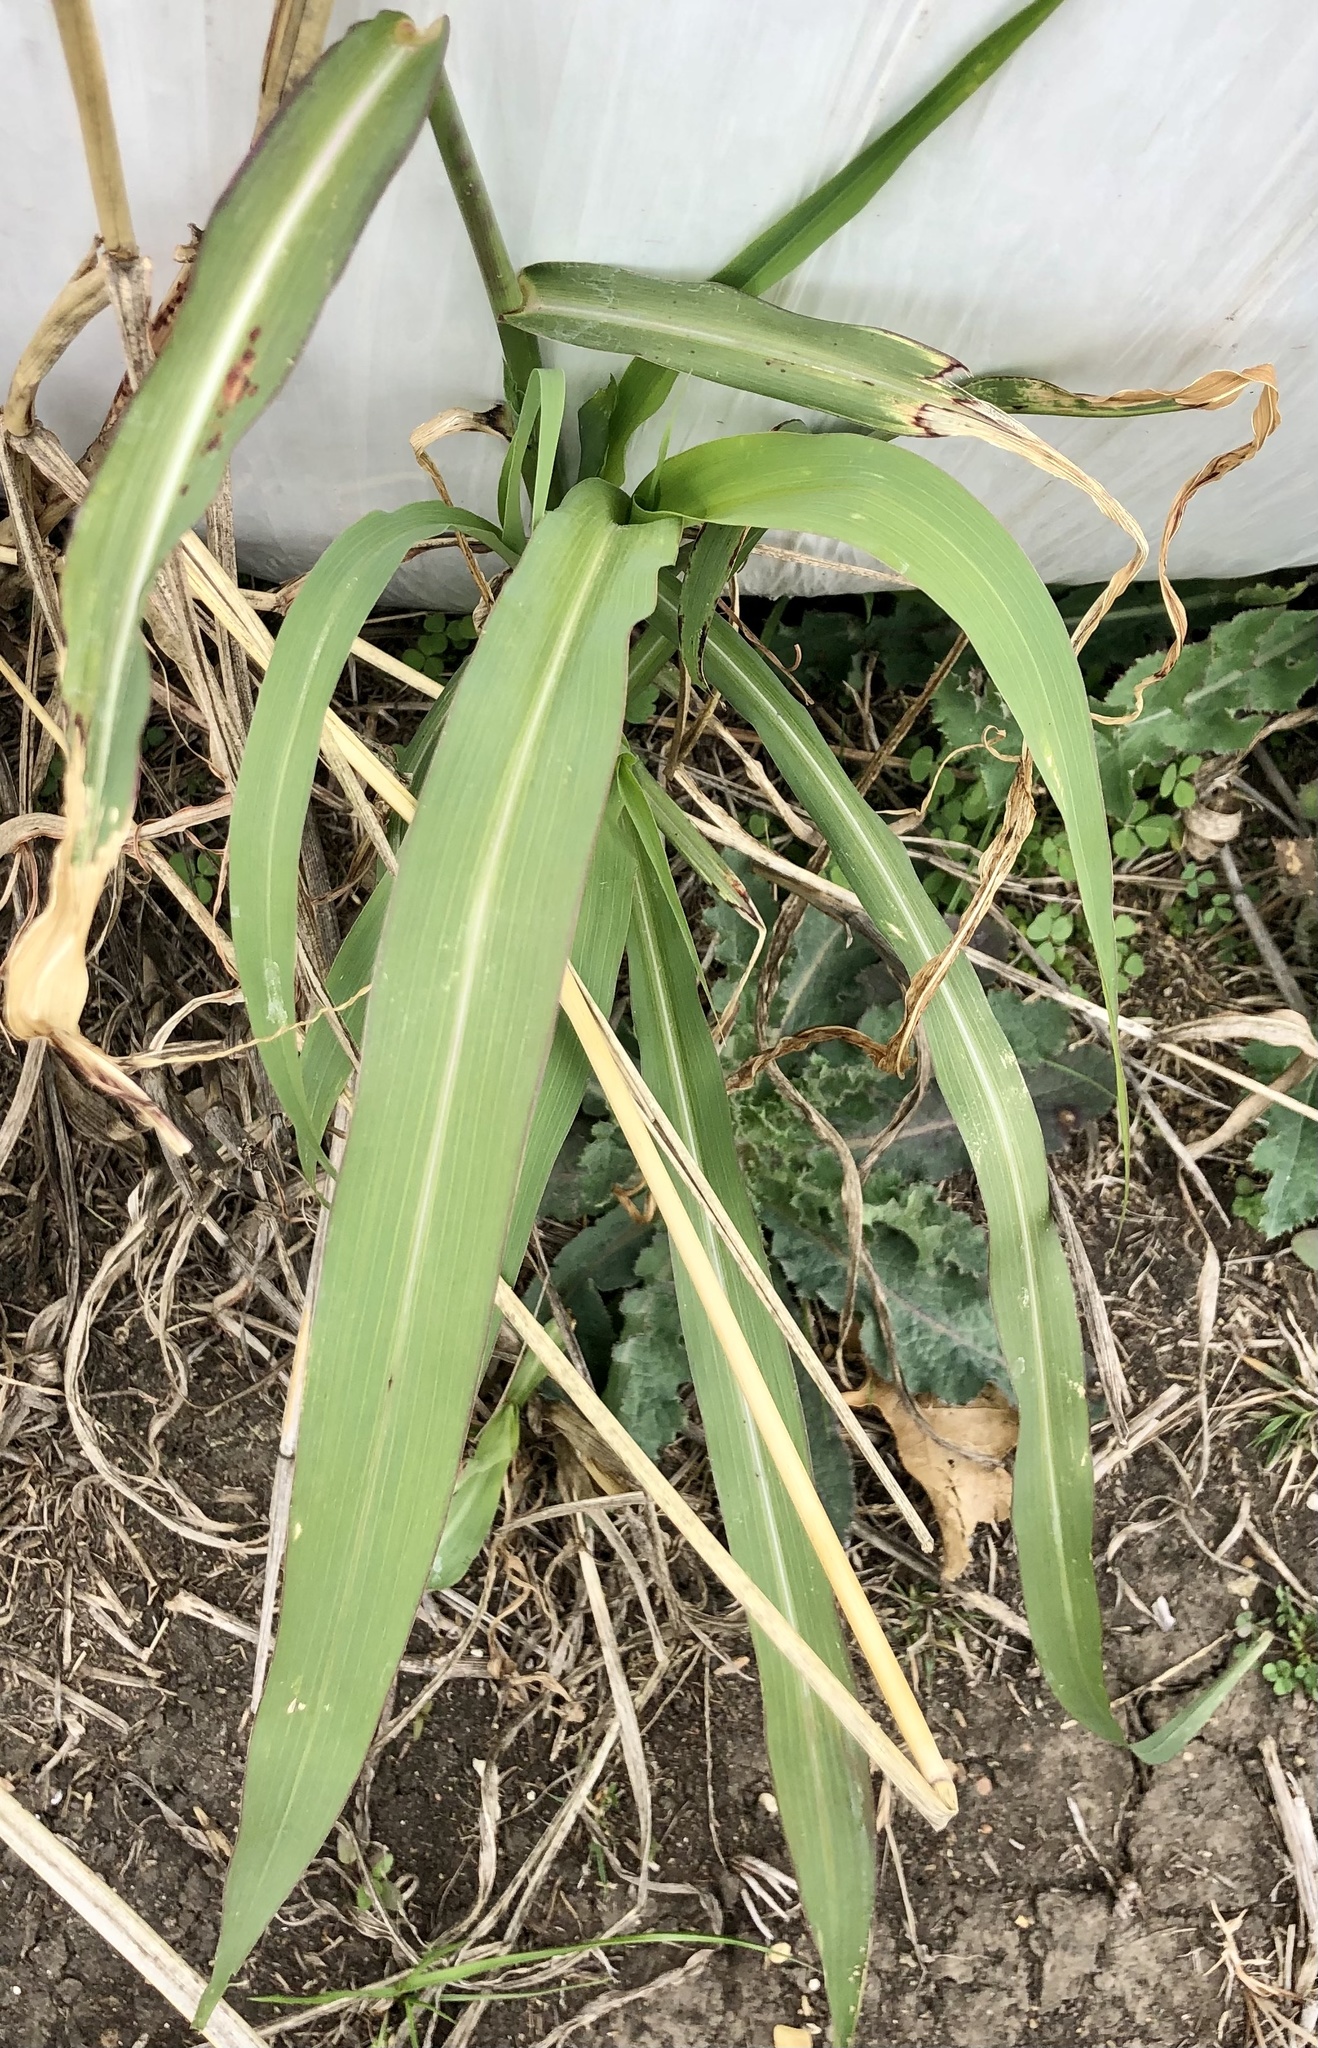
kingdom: Plantae
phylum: Tracheophyta
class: Liliopsida
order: Poales
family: Poaceae
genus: Sorghum
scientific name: Sorghum halepense
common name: Johnson-grass
